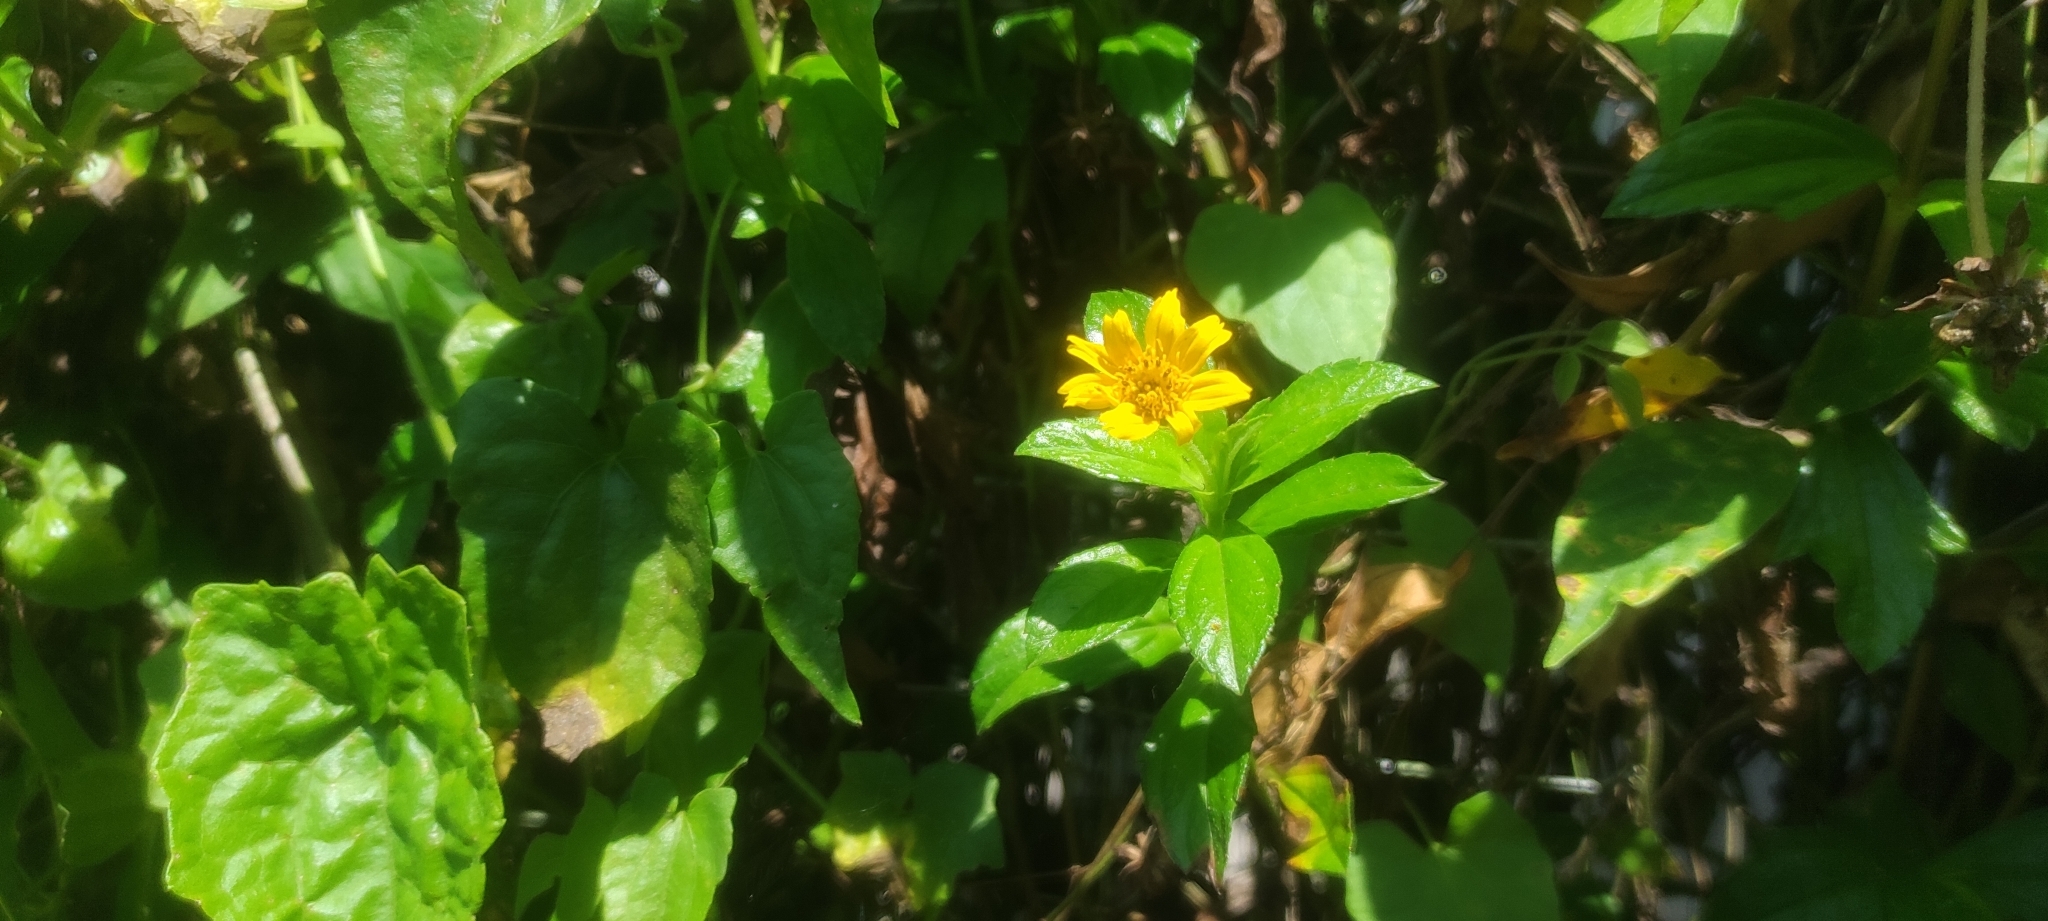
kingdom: Plantae
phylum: Tracheophyta
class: Magnoliopsida
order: Asterales
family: Asteraceae
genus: Sphagneticola
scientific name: Sphagneticola trilobata
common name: Bay biscayne creeping-oxeye
